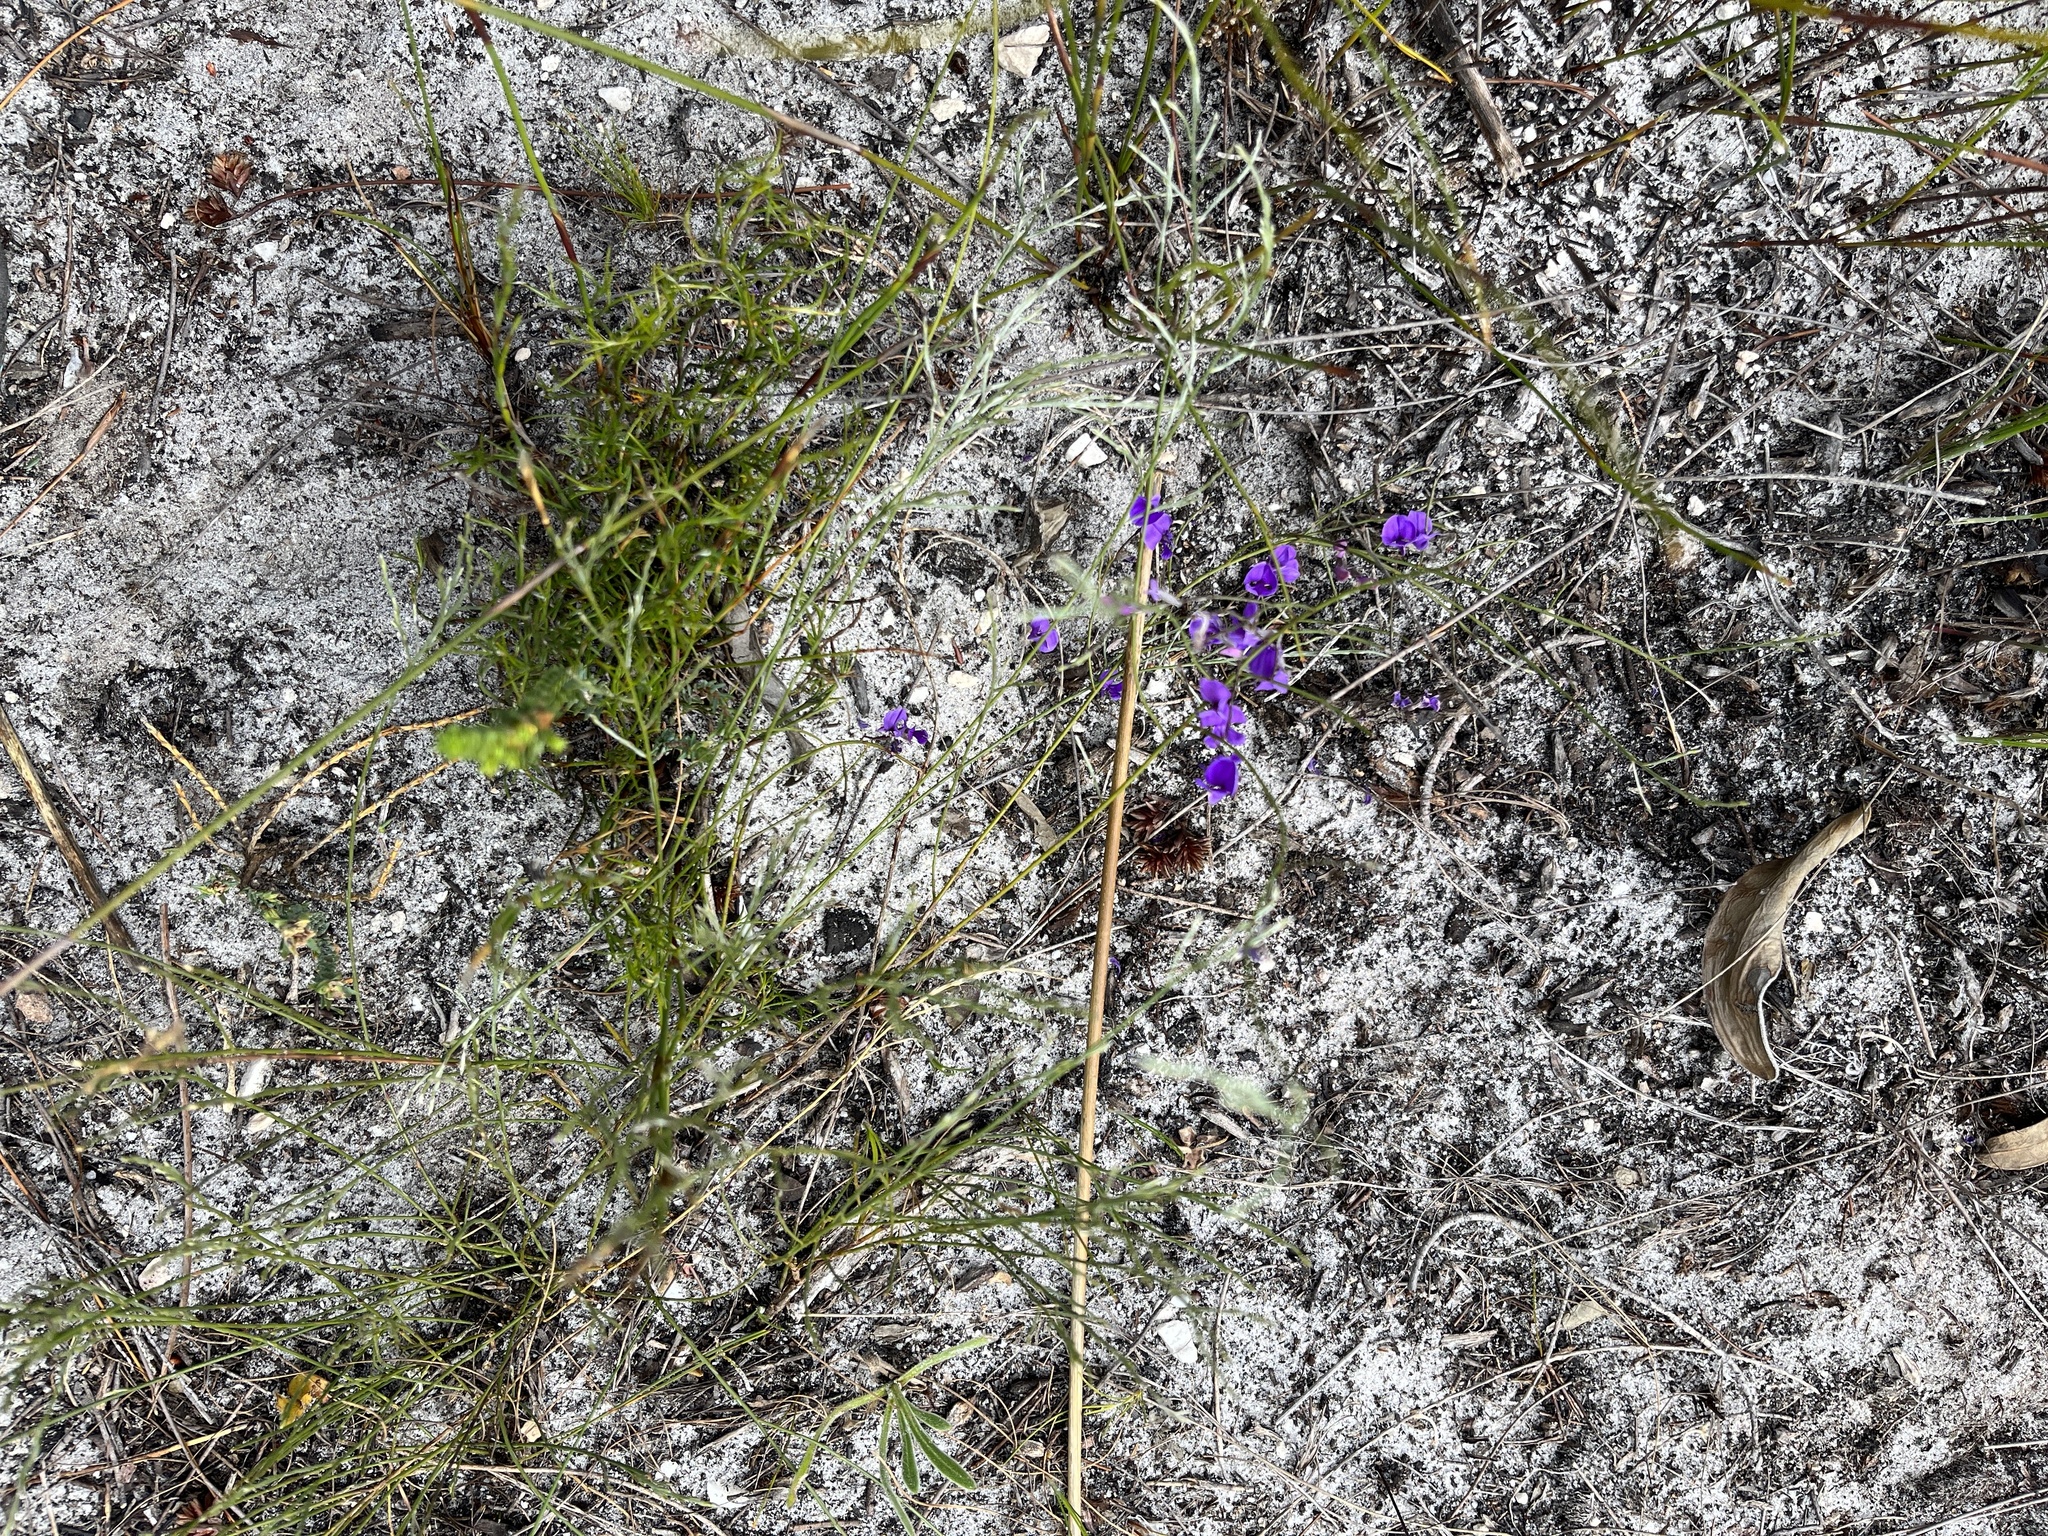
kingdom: Plantae
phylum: Tracheophyta
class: Magnoliopsida
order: Fabales
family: Fabaceae
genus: Amphithalea
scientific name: Amphithalea biovulata
